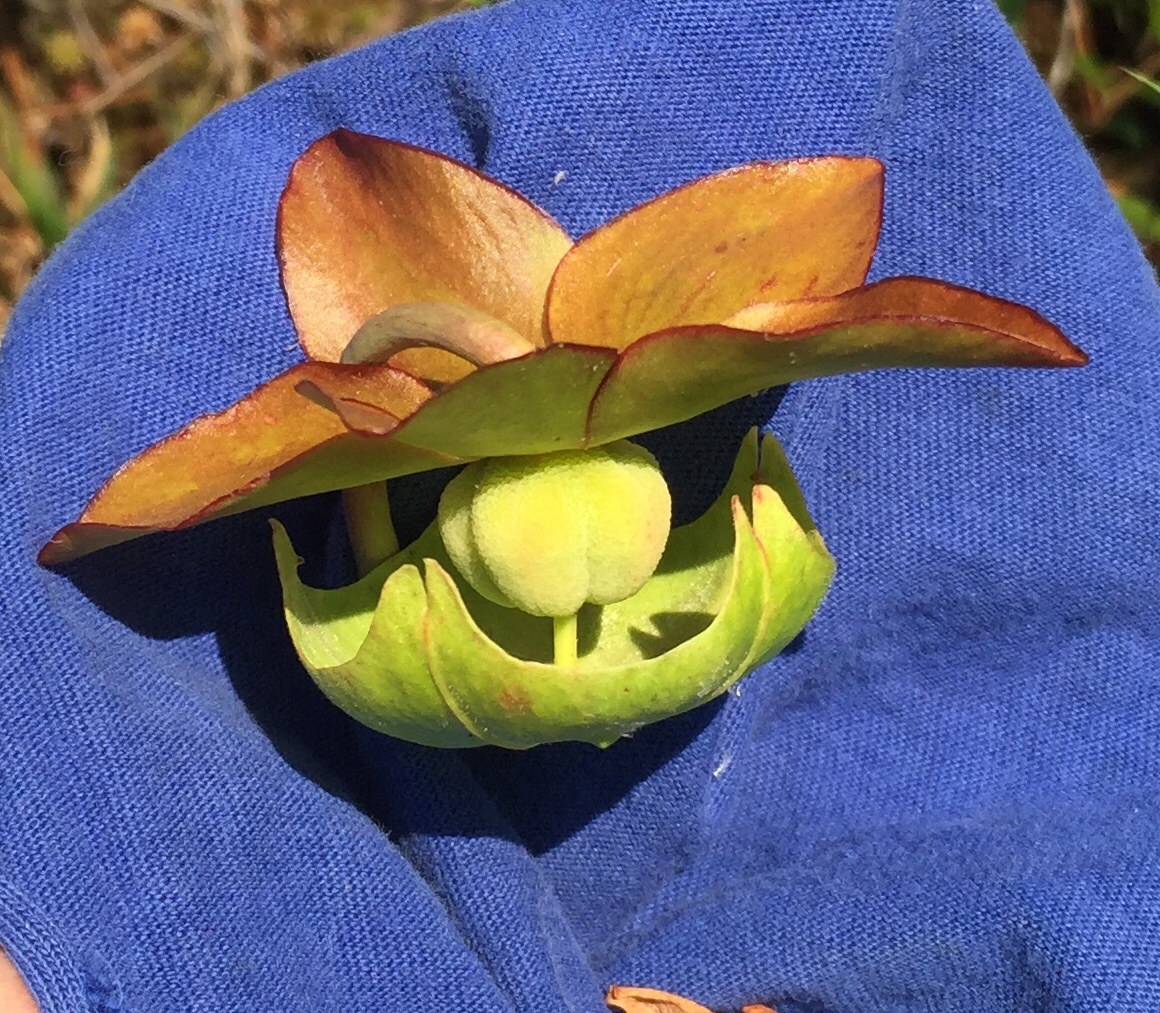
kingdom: Plantae
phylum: Tracheophyta
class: Magnoliopsida
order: Ericales
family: Sarraceniaceae
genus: Sarracenia
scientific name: Sarracenia purpurea
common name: Pitcherplant
